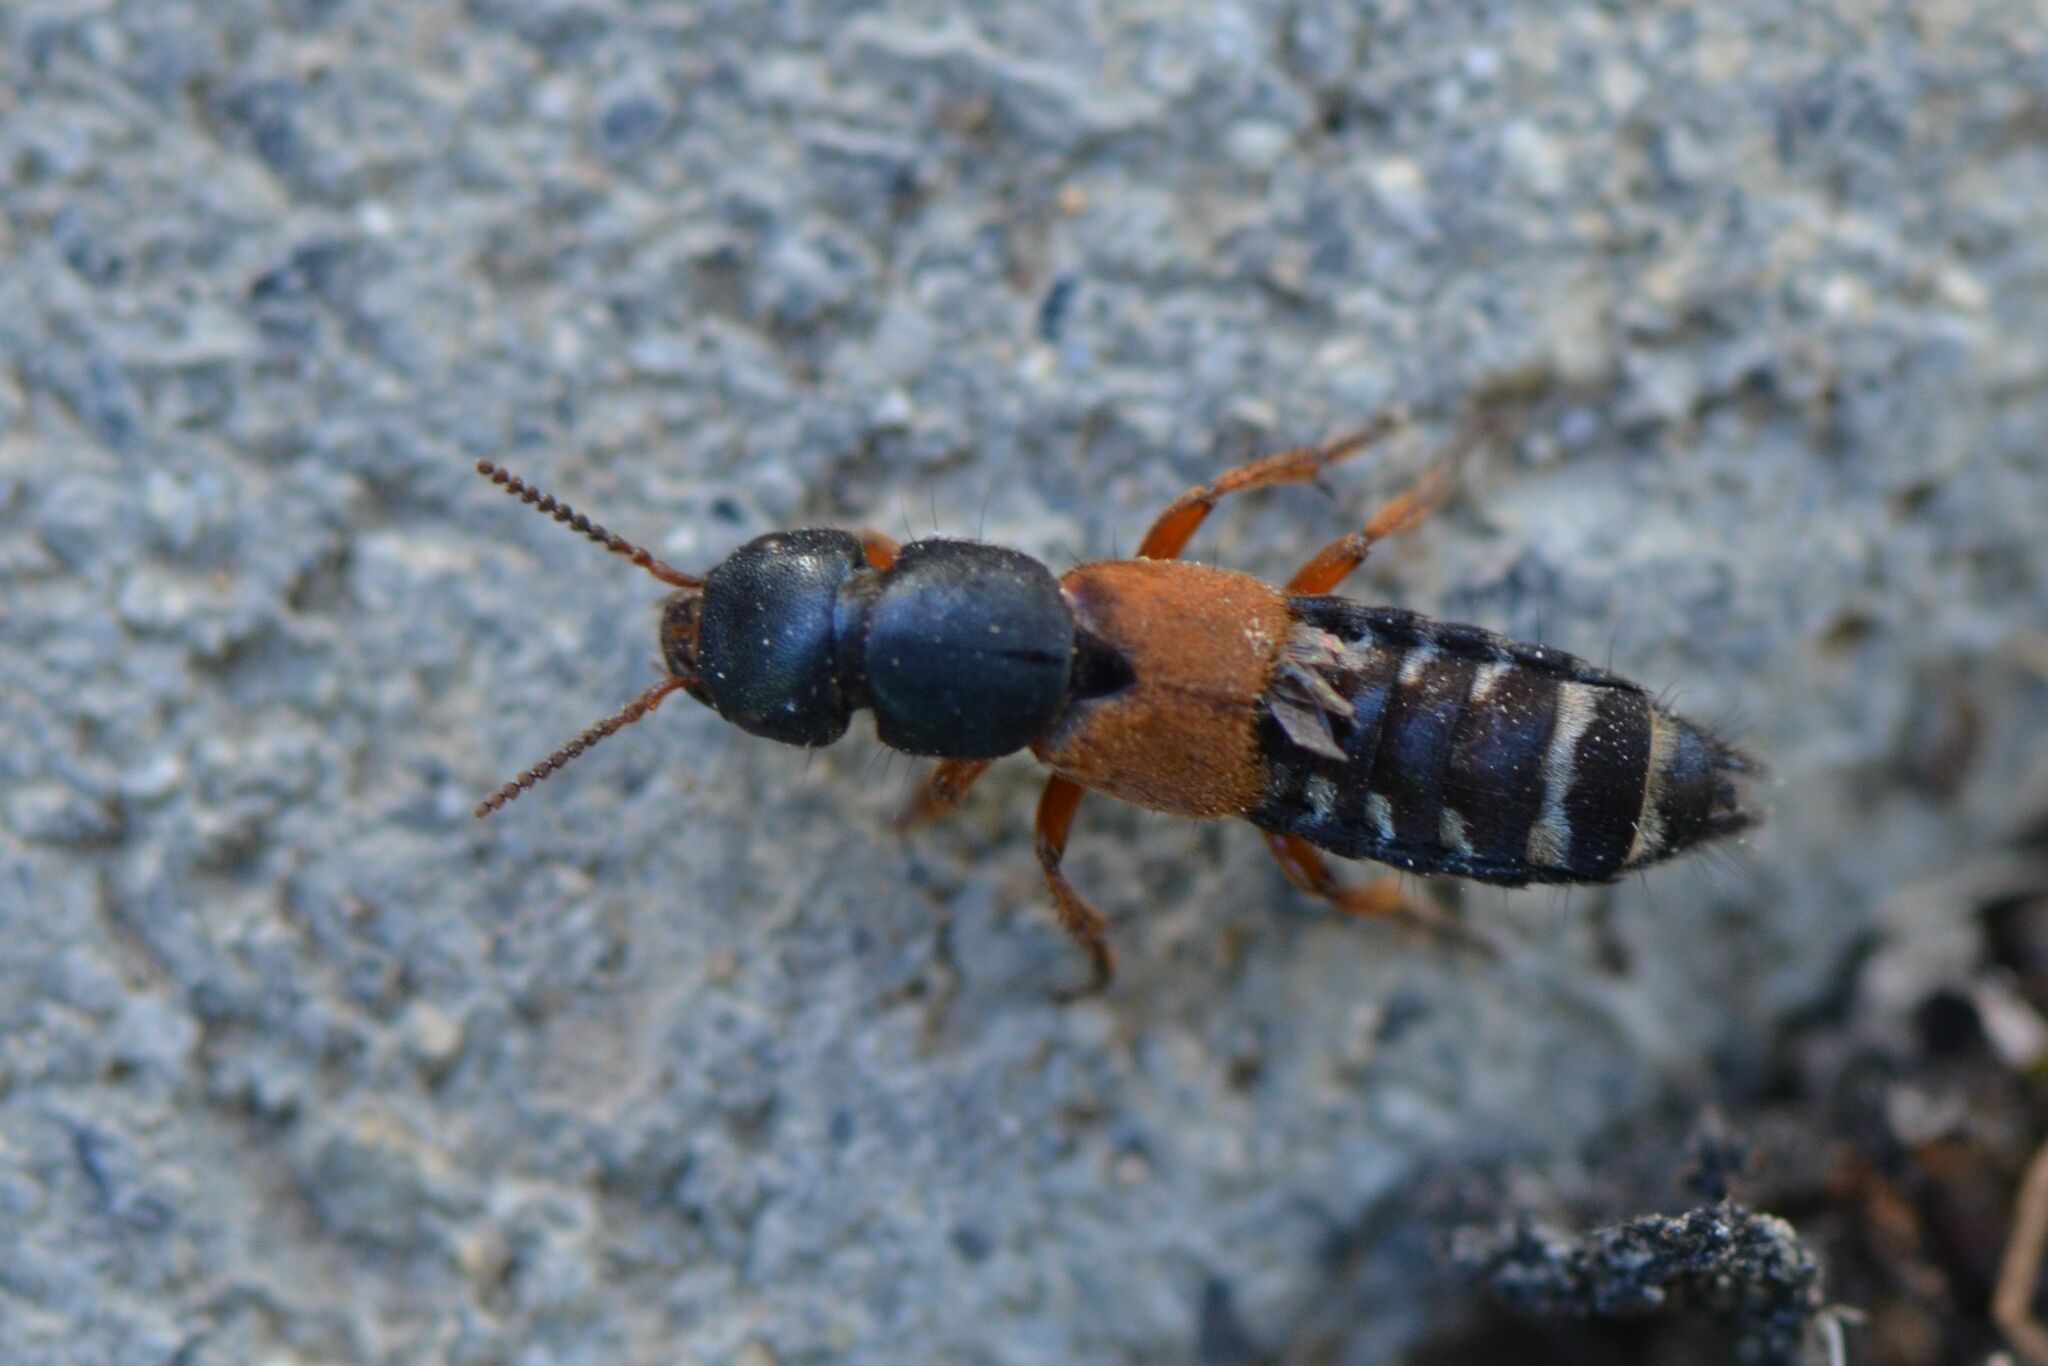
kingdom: Animalia
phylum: Arthropoda
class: Insecta
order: Coleoptera
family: Staphylinidae
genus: Platydracus
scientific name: Platydracus stercorarius
